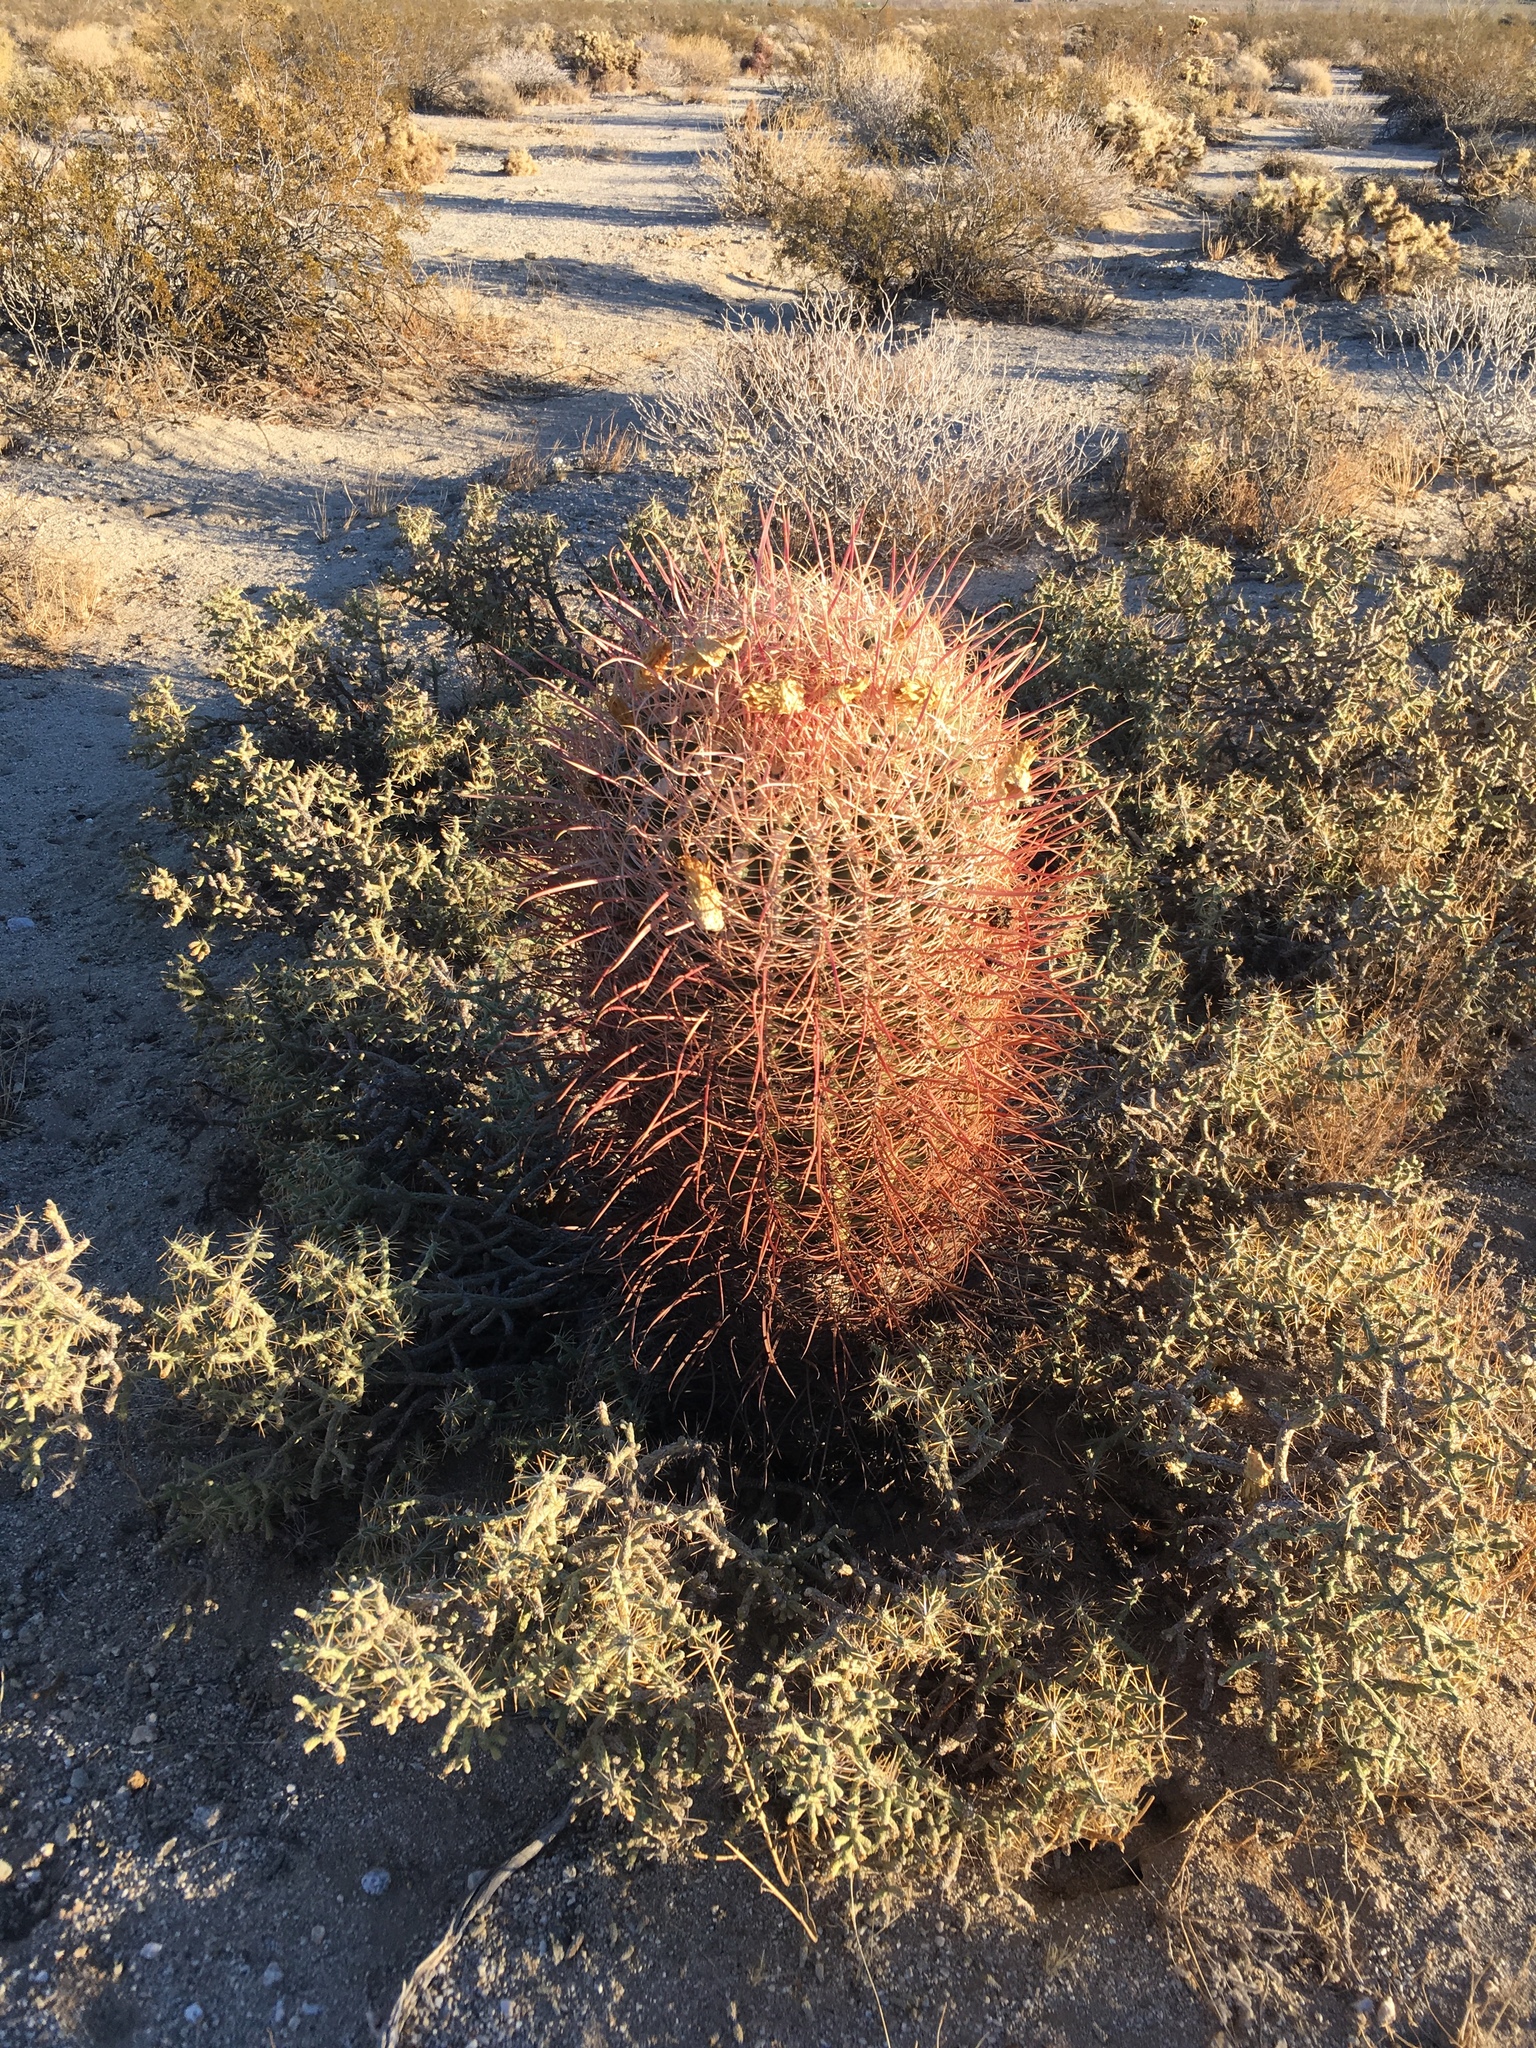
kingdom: Plantae
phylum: Tracheophyta
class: Magnoliopsida
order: Caryophyllales
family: Cactaceae
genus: Ferocactus
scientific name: Ferocactus cylindraceus
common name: California barrel cactus
